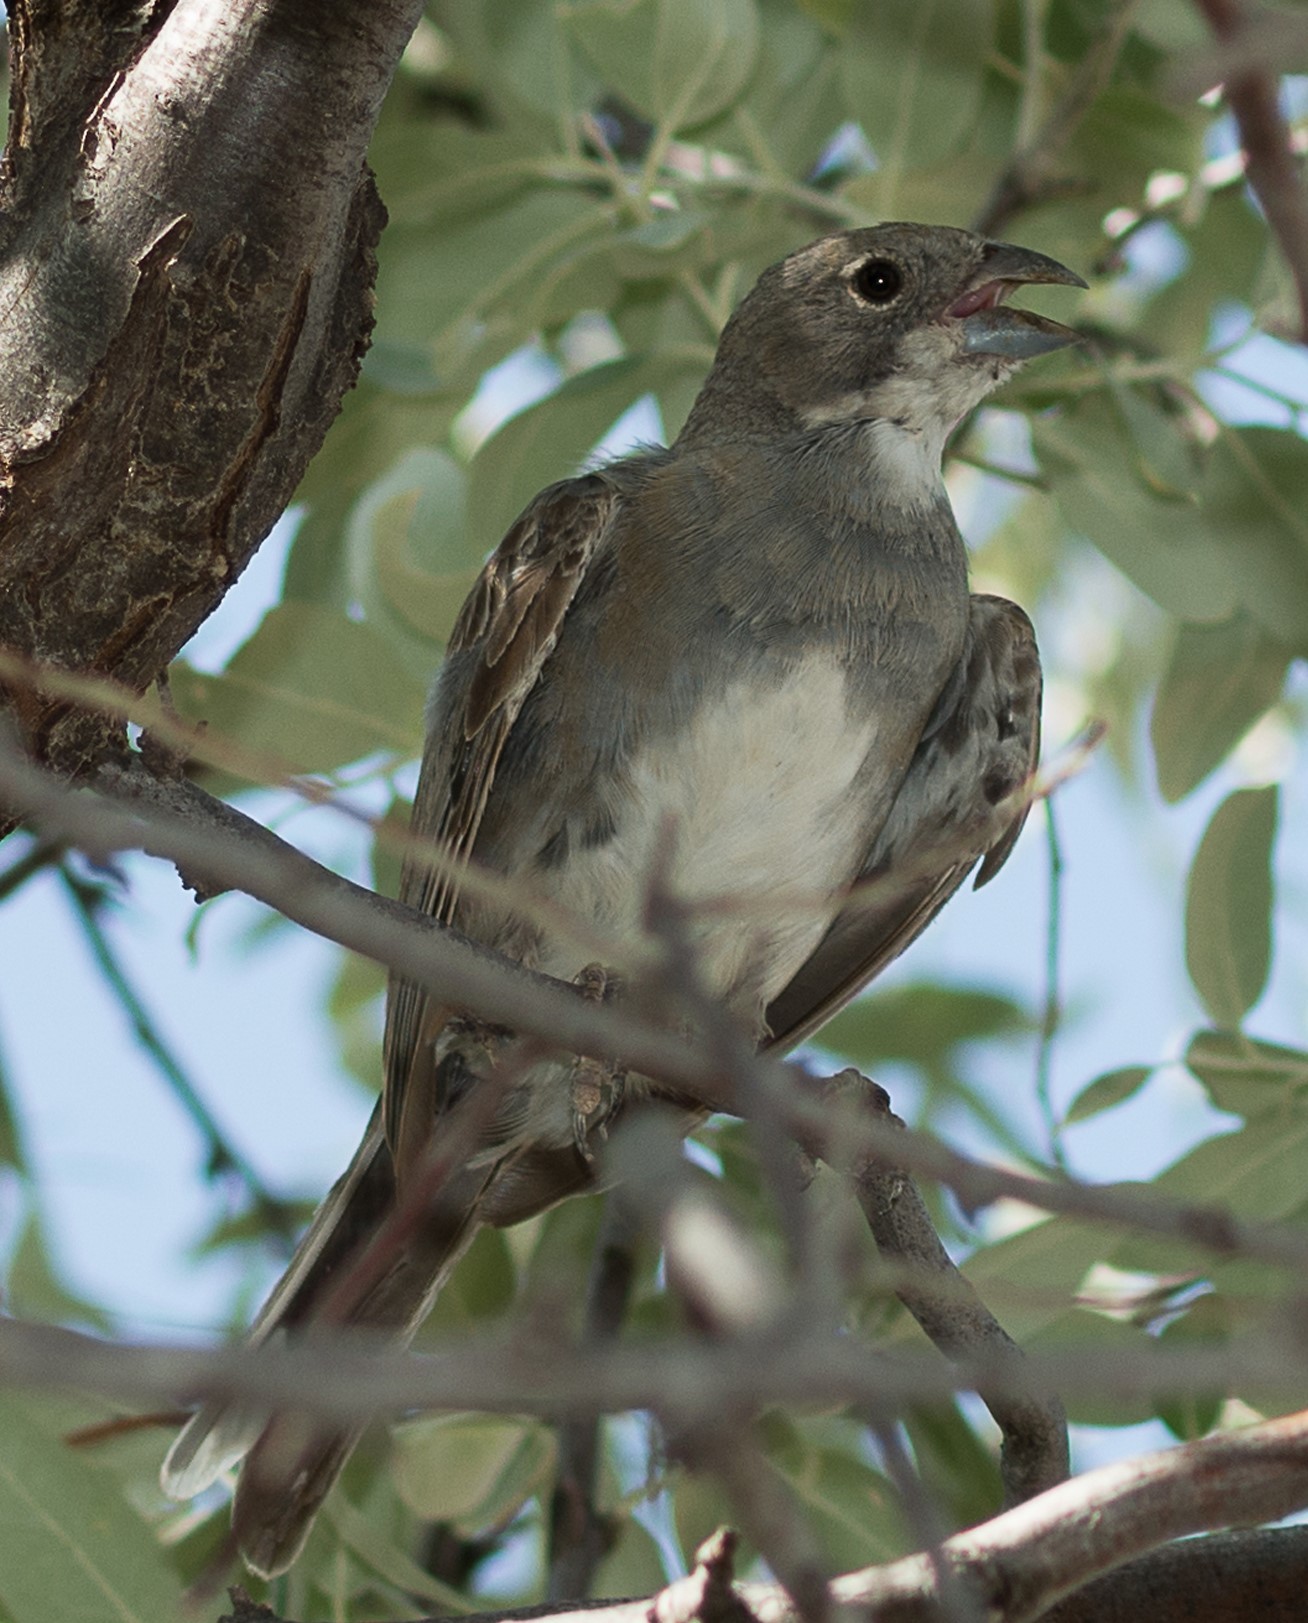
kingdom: Animalia
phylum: Chordata
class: Aves
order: Passeriformes
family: Thraupidae
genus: Diuca
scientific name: Diuca diuca
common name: Common diuca finch
